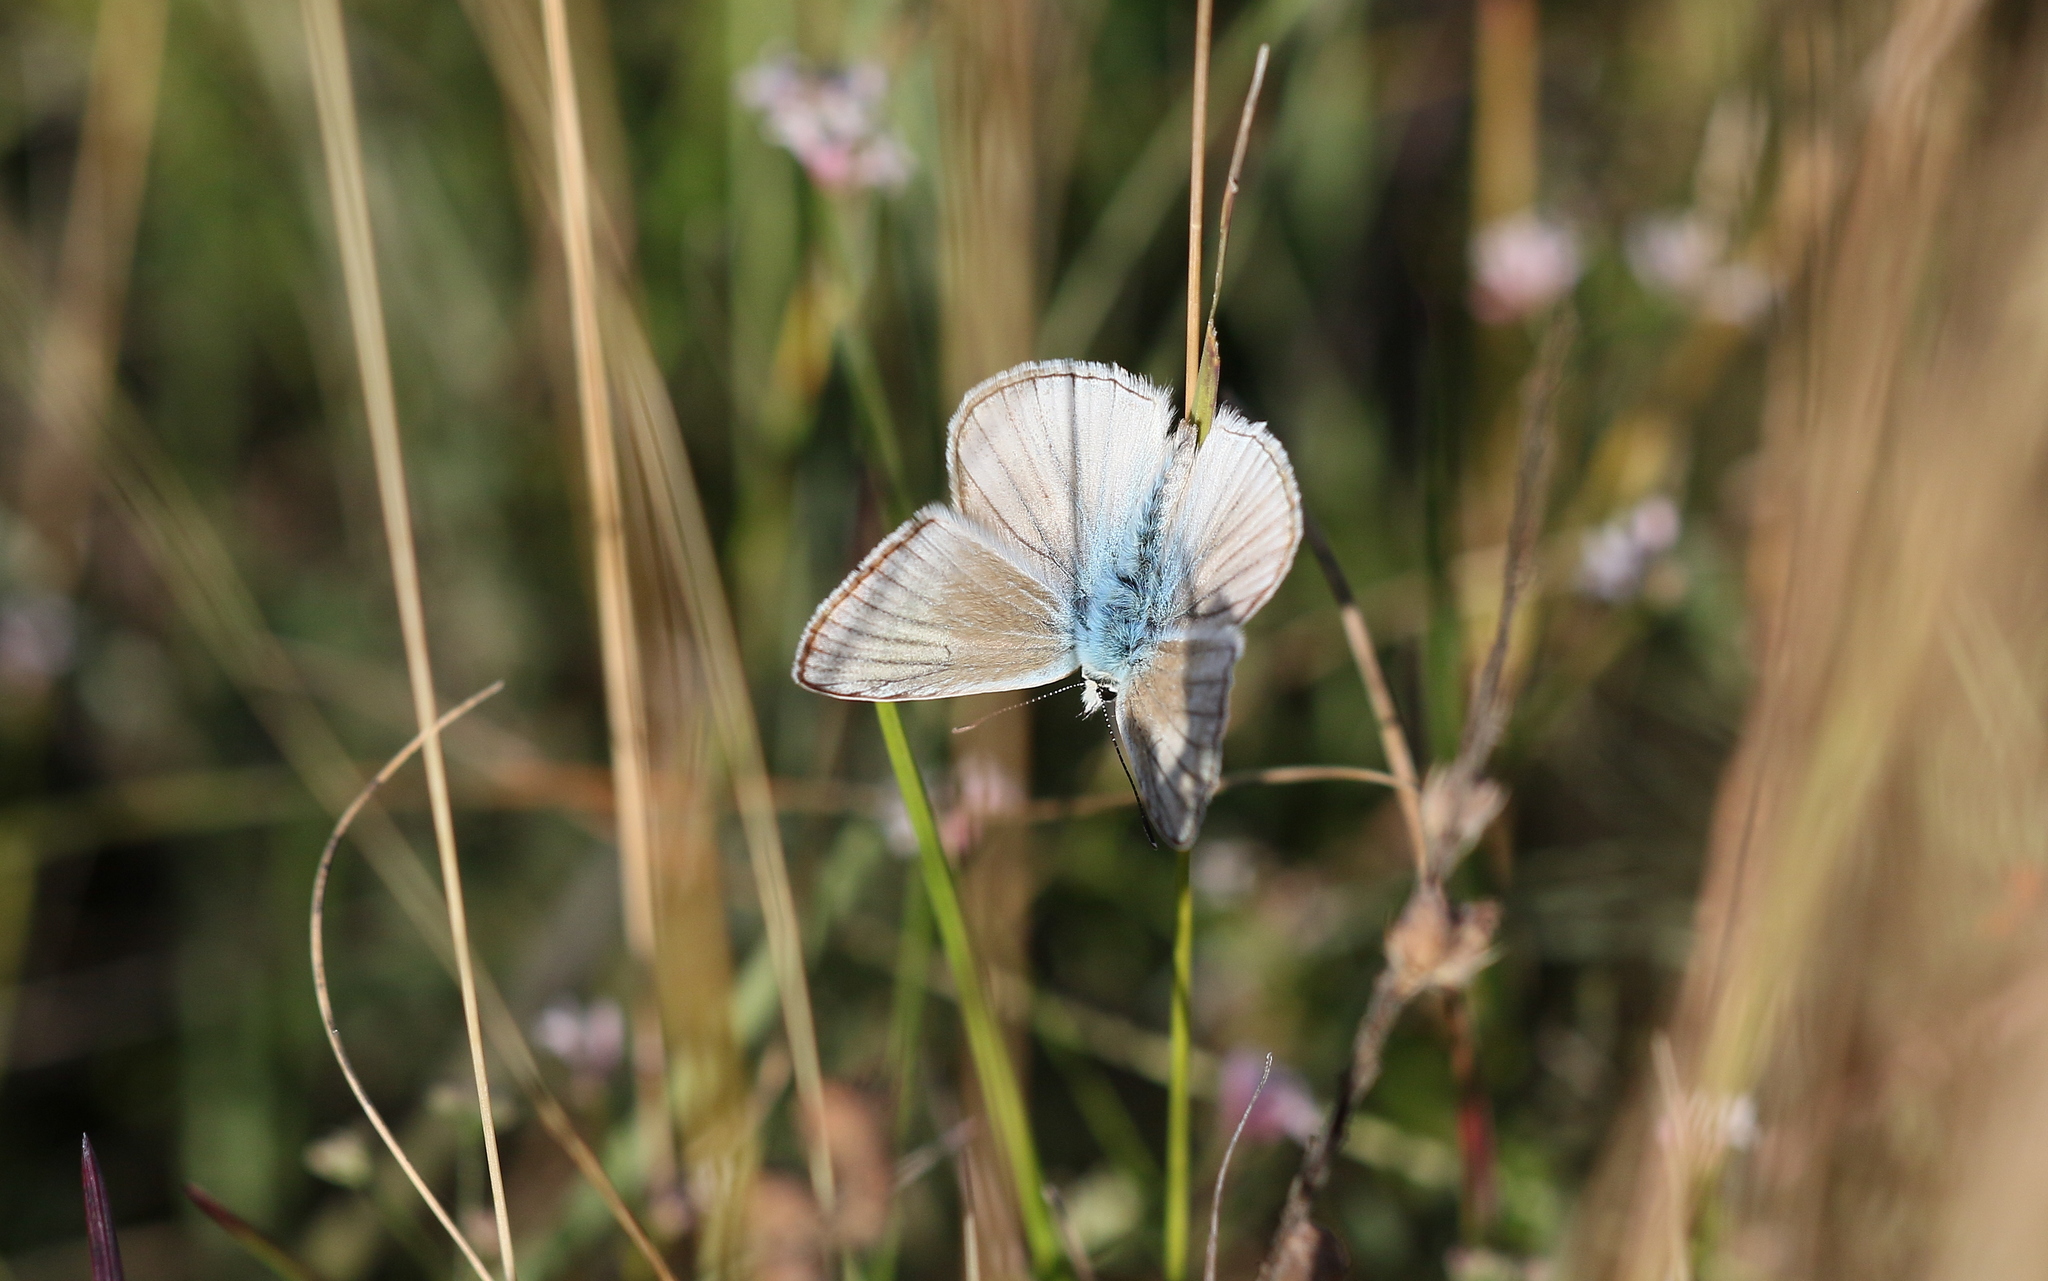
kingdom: Animalia
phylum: Arthropoda
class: Insecta
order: Lepidoptera
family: Lycaenidae
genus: Agrodiaetus
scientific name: Agrodiaetus dolus
